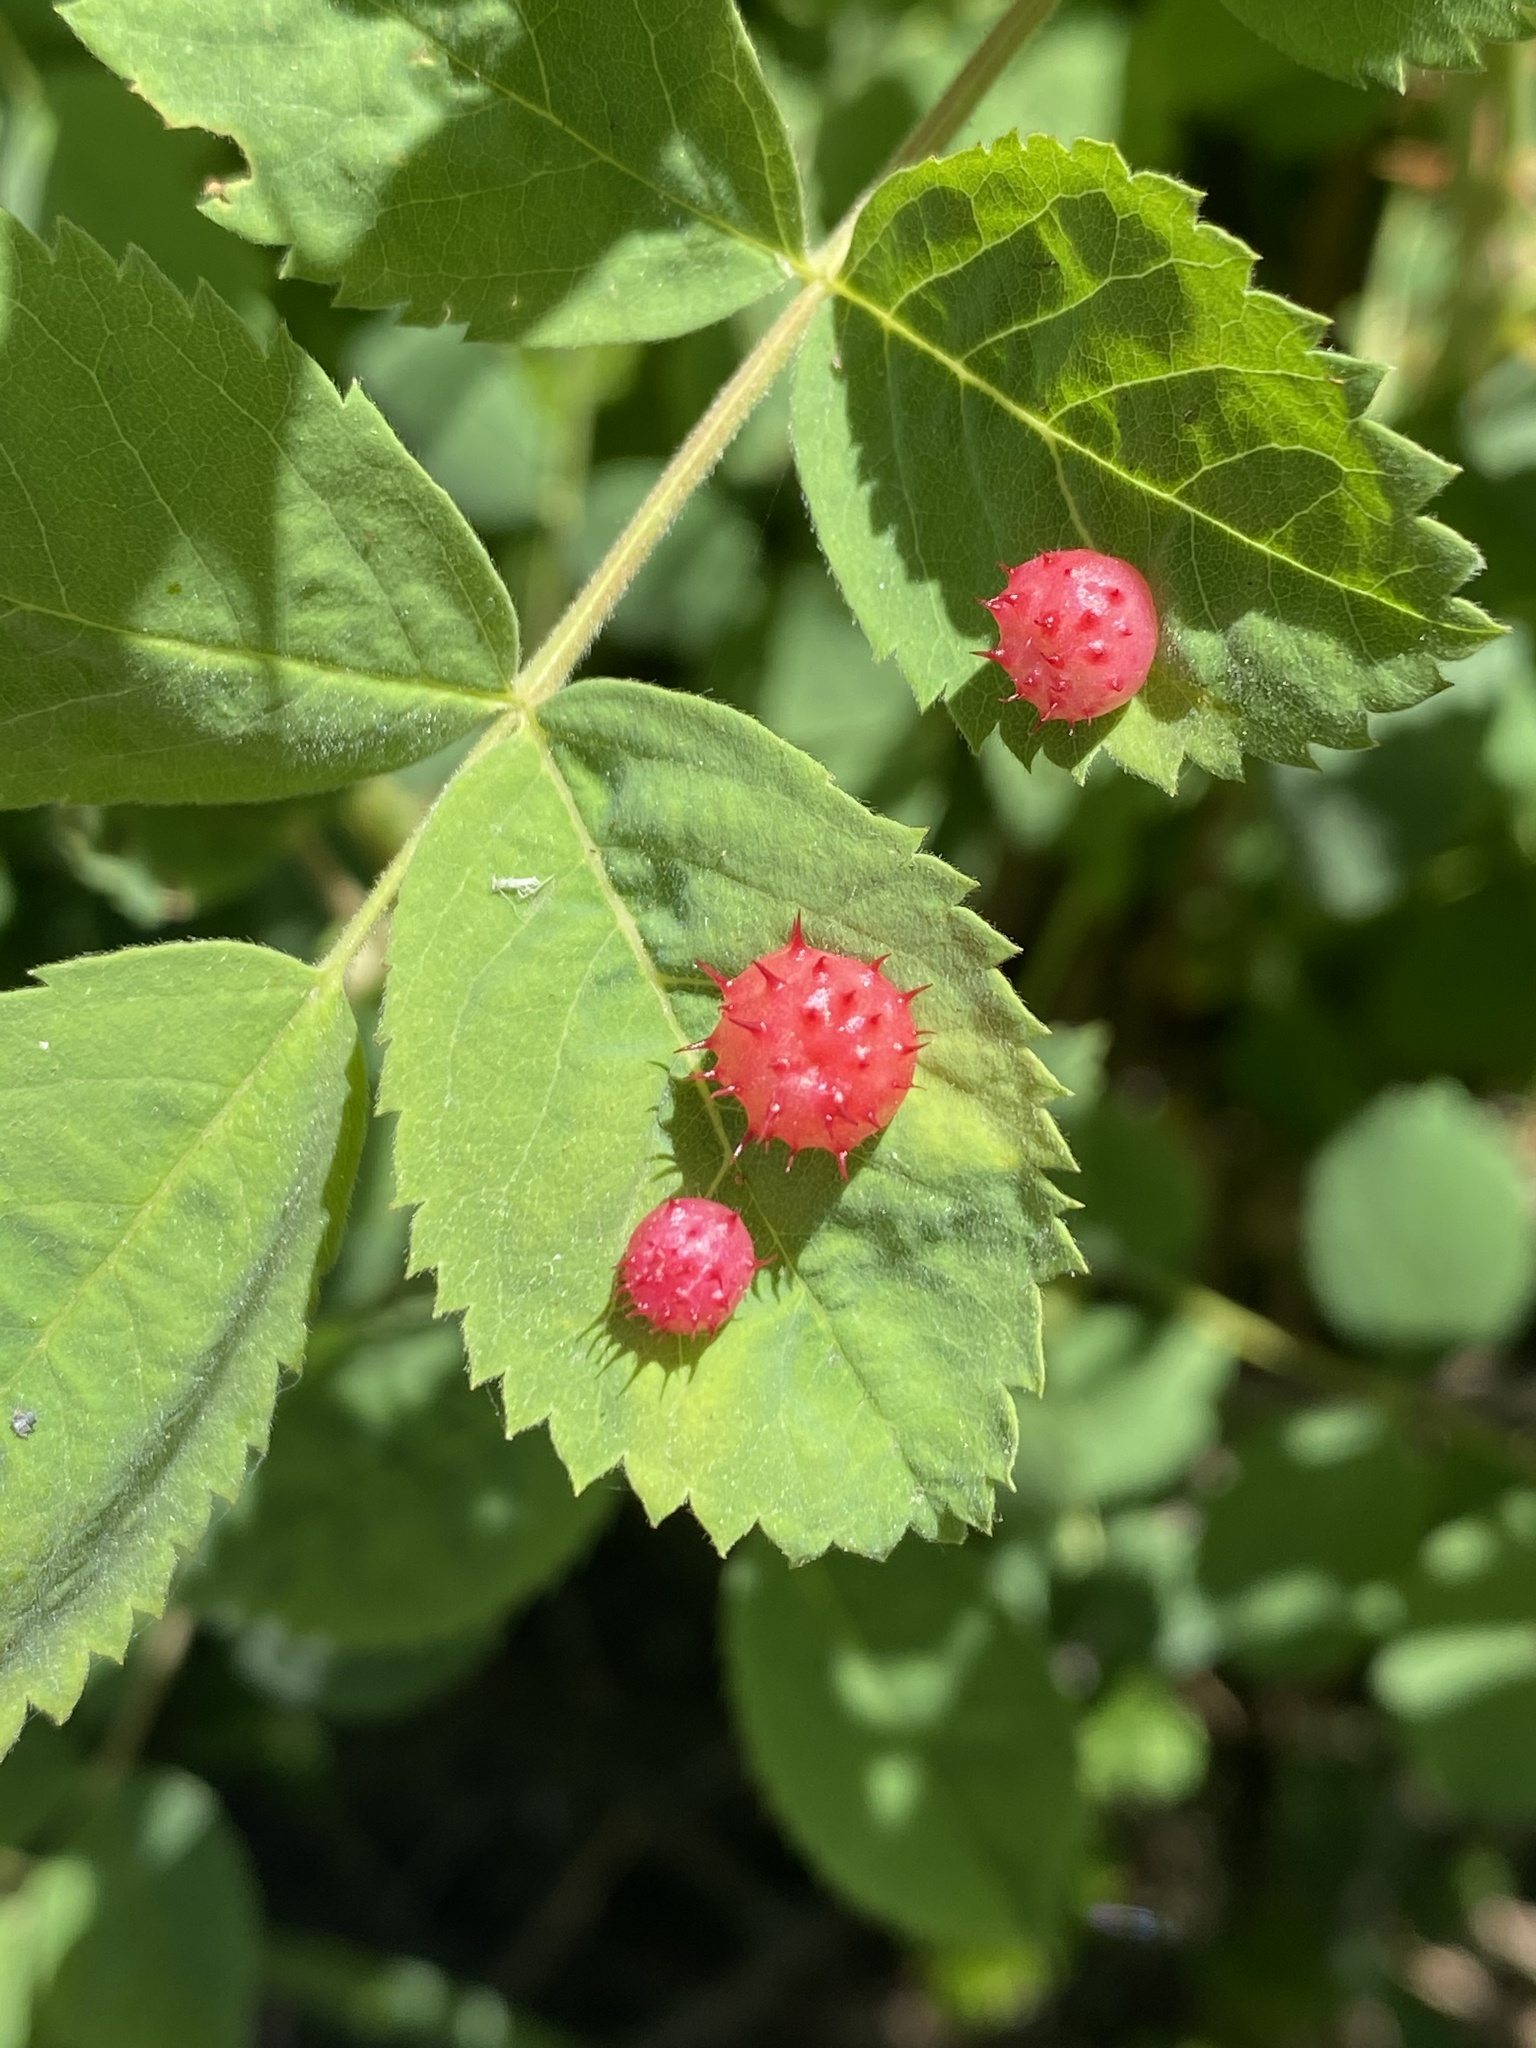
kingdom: Animalia
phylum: Arthropoda
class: Insecta
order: Hymenoptera
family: Cynipidae
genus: Diplolepis
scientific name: Diplolepis polita
